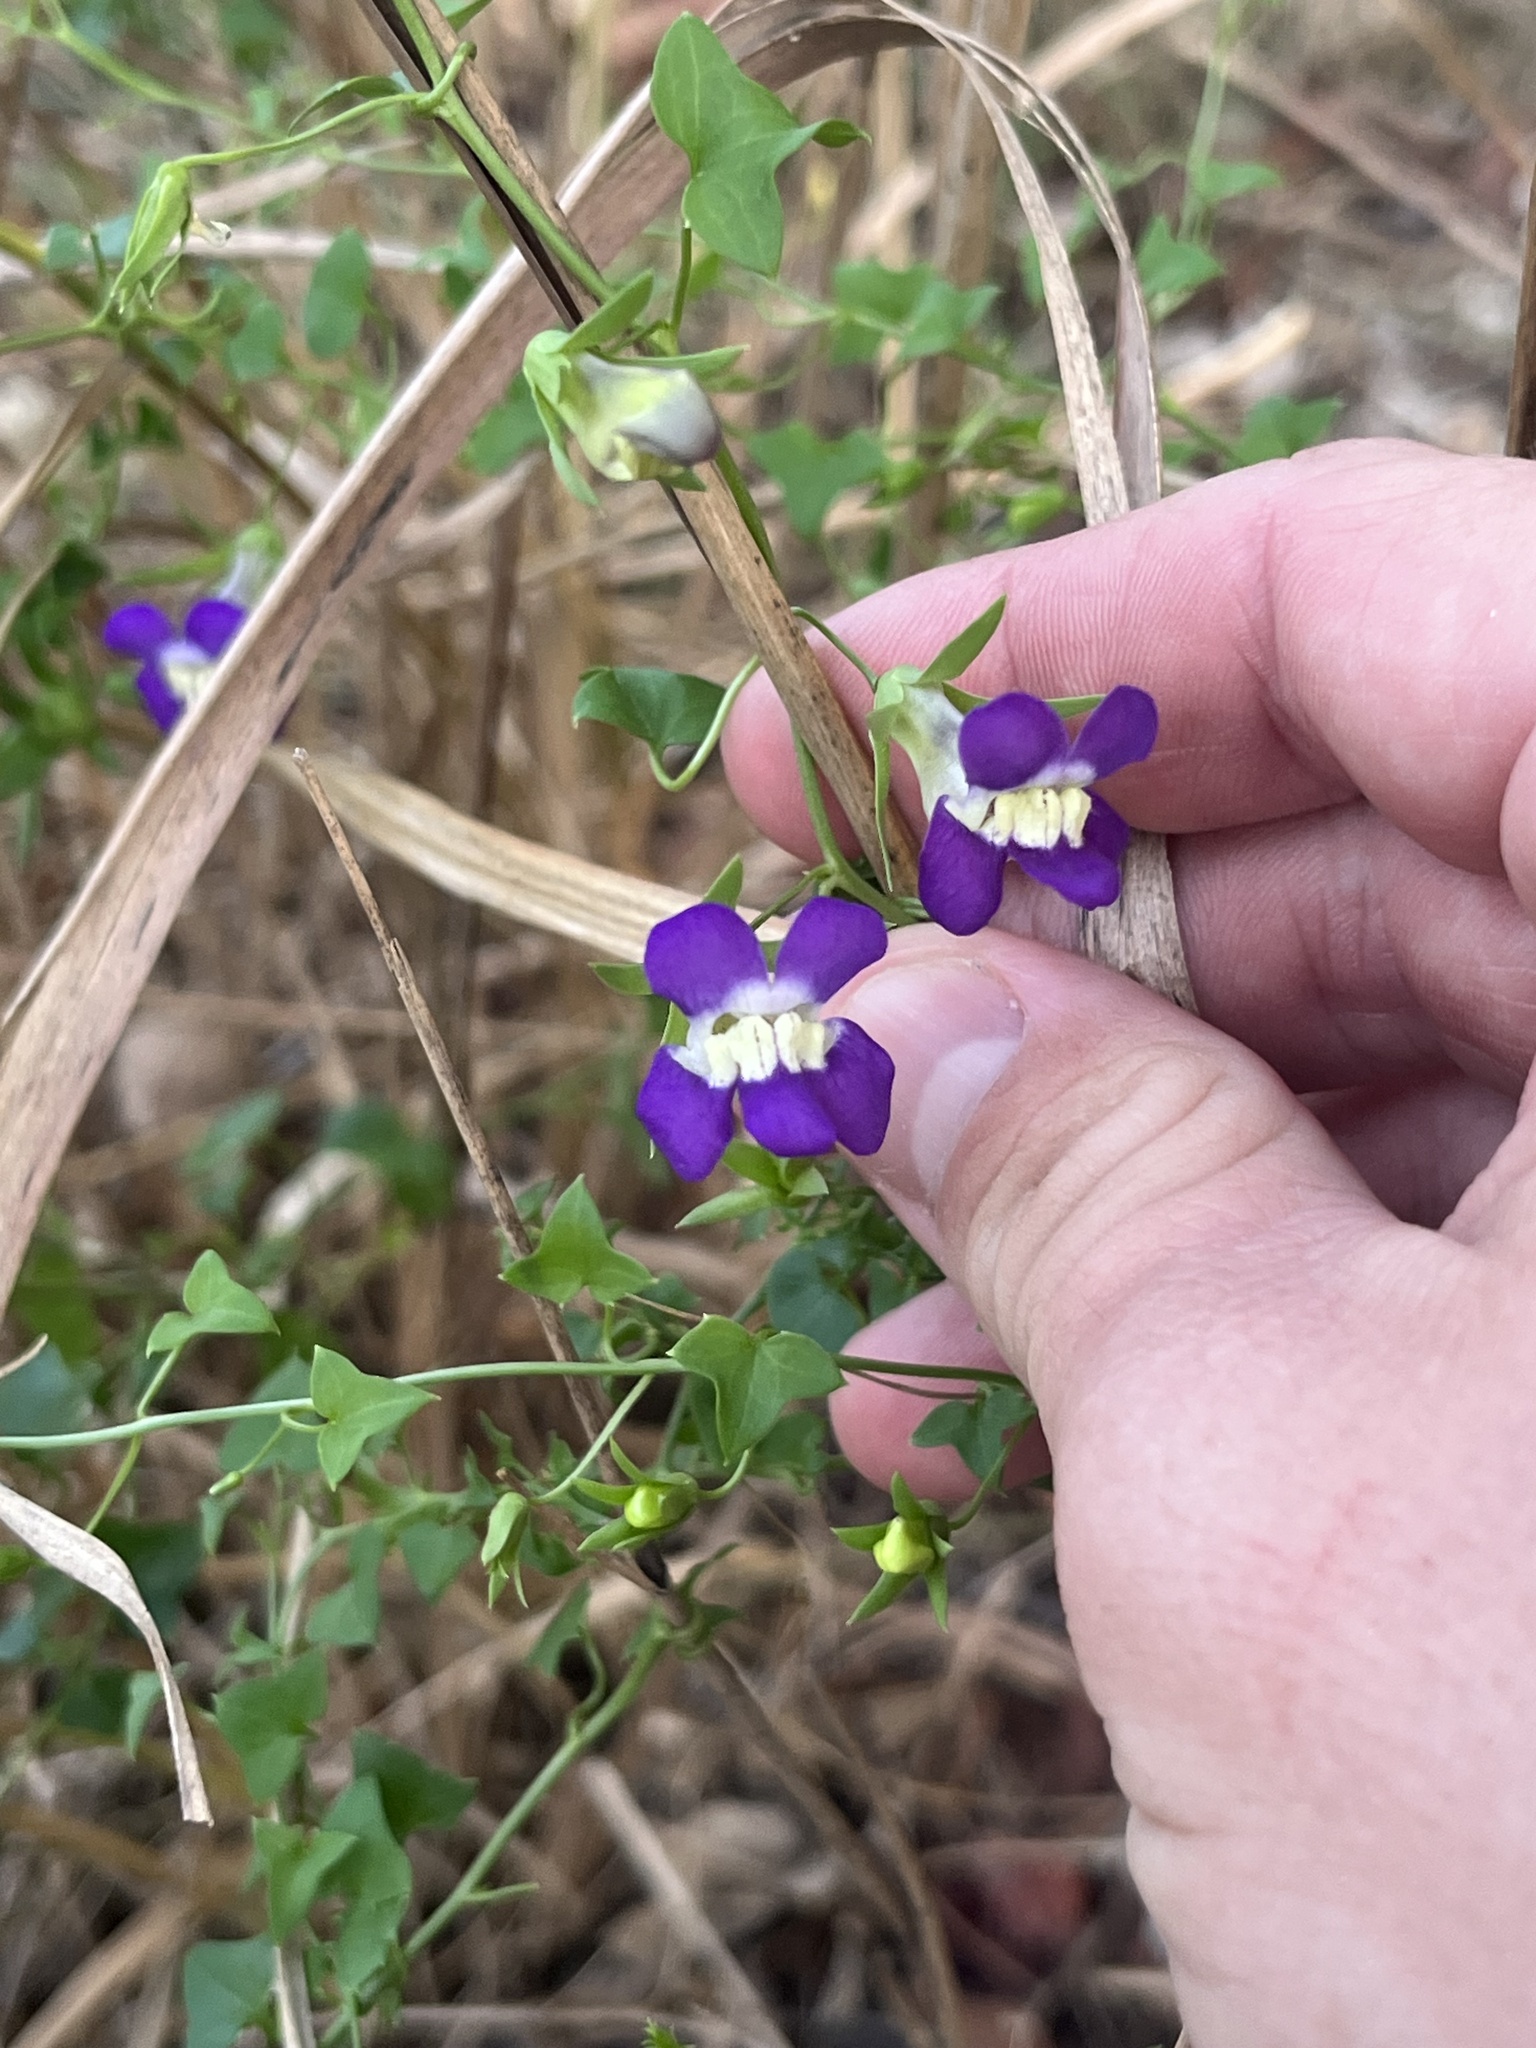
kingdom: Plantae
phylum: Tracheophyta
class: Magnoliopsida
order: Lamiales
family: Plantaginaceae
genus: Maurandella
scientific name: Maurandella antirrhiniflora
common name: Violet twining-snapdragon
